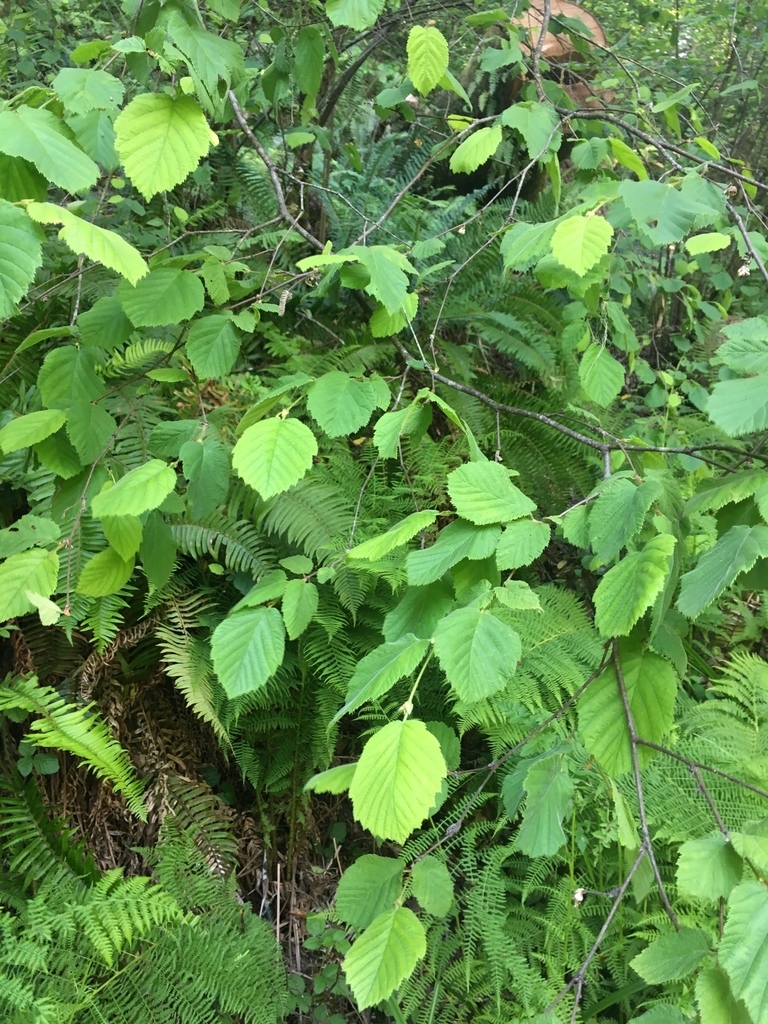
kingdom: Plantae
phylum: Tracheophyta
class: Magnoliopsida
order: Fagales
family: Betulaceae
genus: Corylus
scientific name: Corylus cornuta
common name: Beaked hazel
